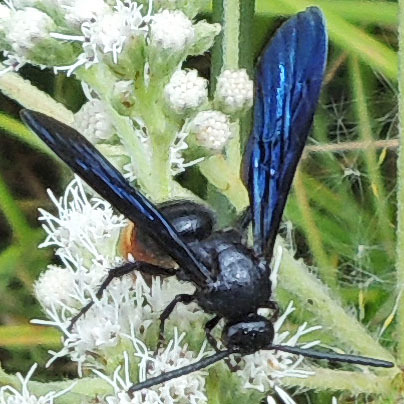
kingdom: Animalia
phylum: Arthropoda
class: Insecta
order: Hymenoptera
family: Scoliidae
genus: Scolia
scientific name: Scolia dubia
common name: Blue-winged scoliid wasp
